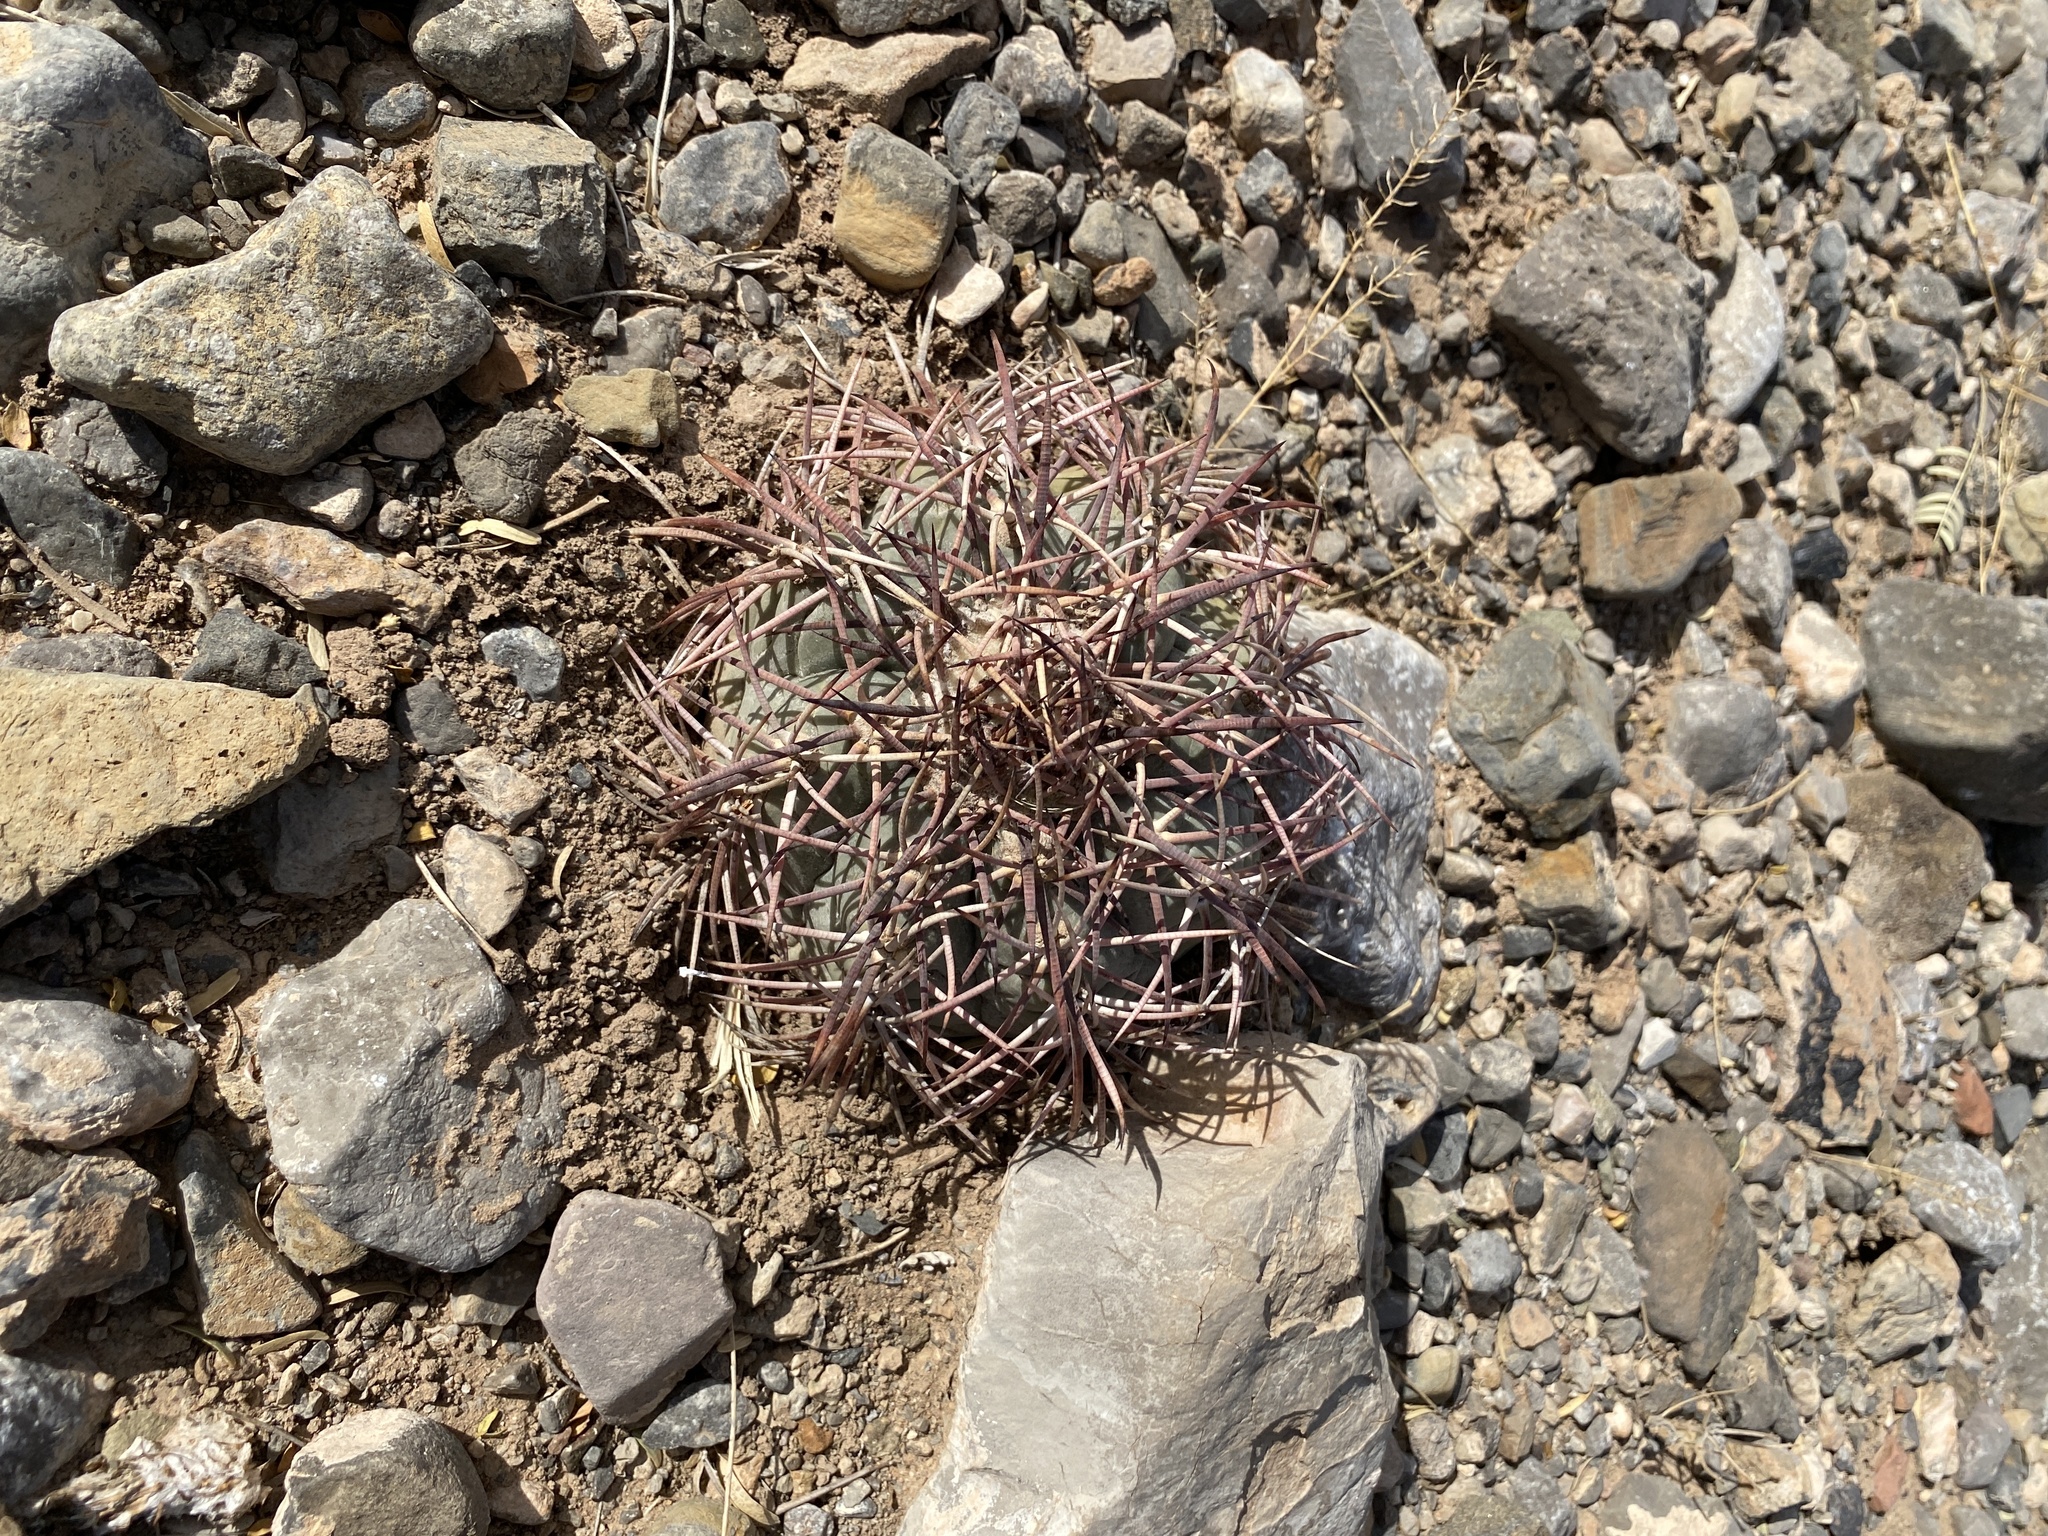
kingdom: Plantae
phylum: Tracheophyta
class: Magnoliopsida
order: Caryophyllales
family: Cactaceae
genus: Echinocactus
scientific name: Echinocactus horizonthalonius
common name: Devilshead
